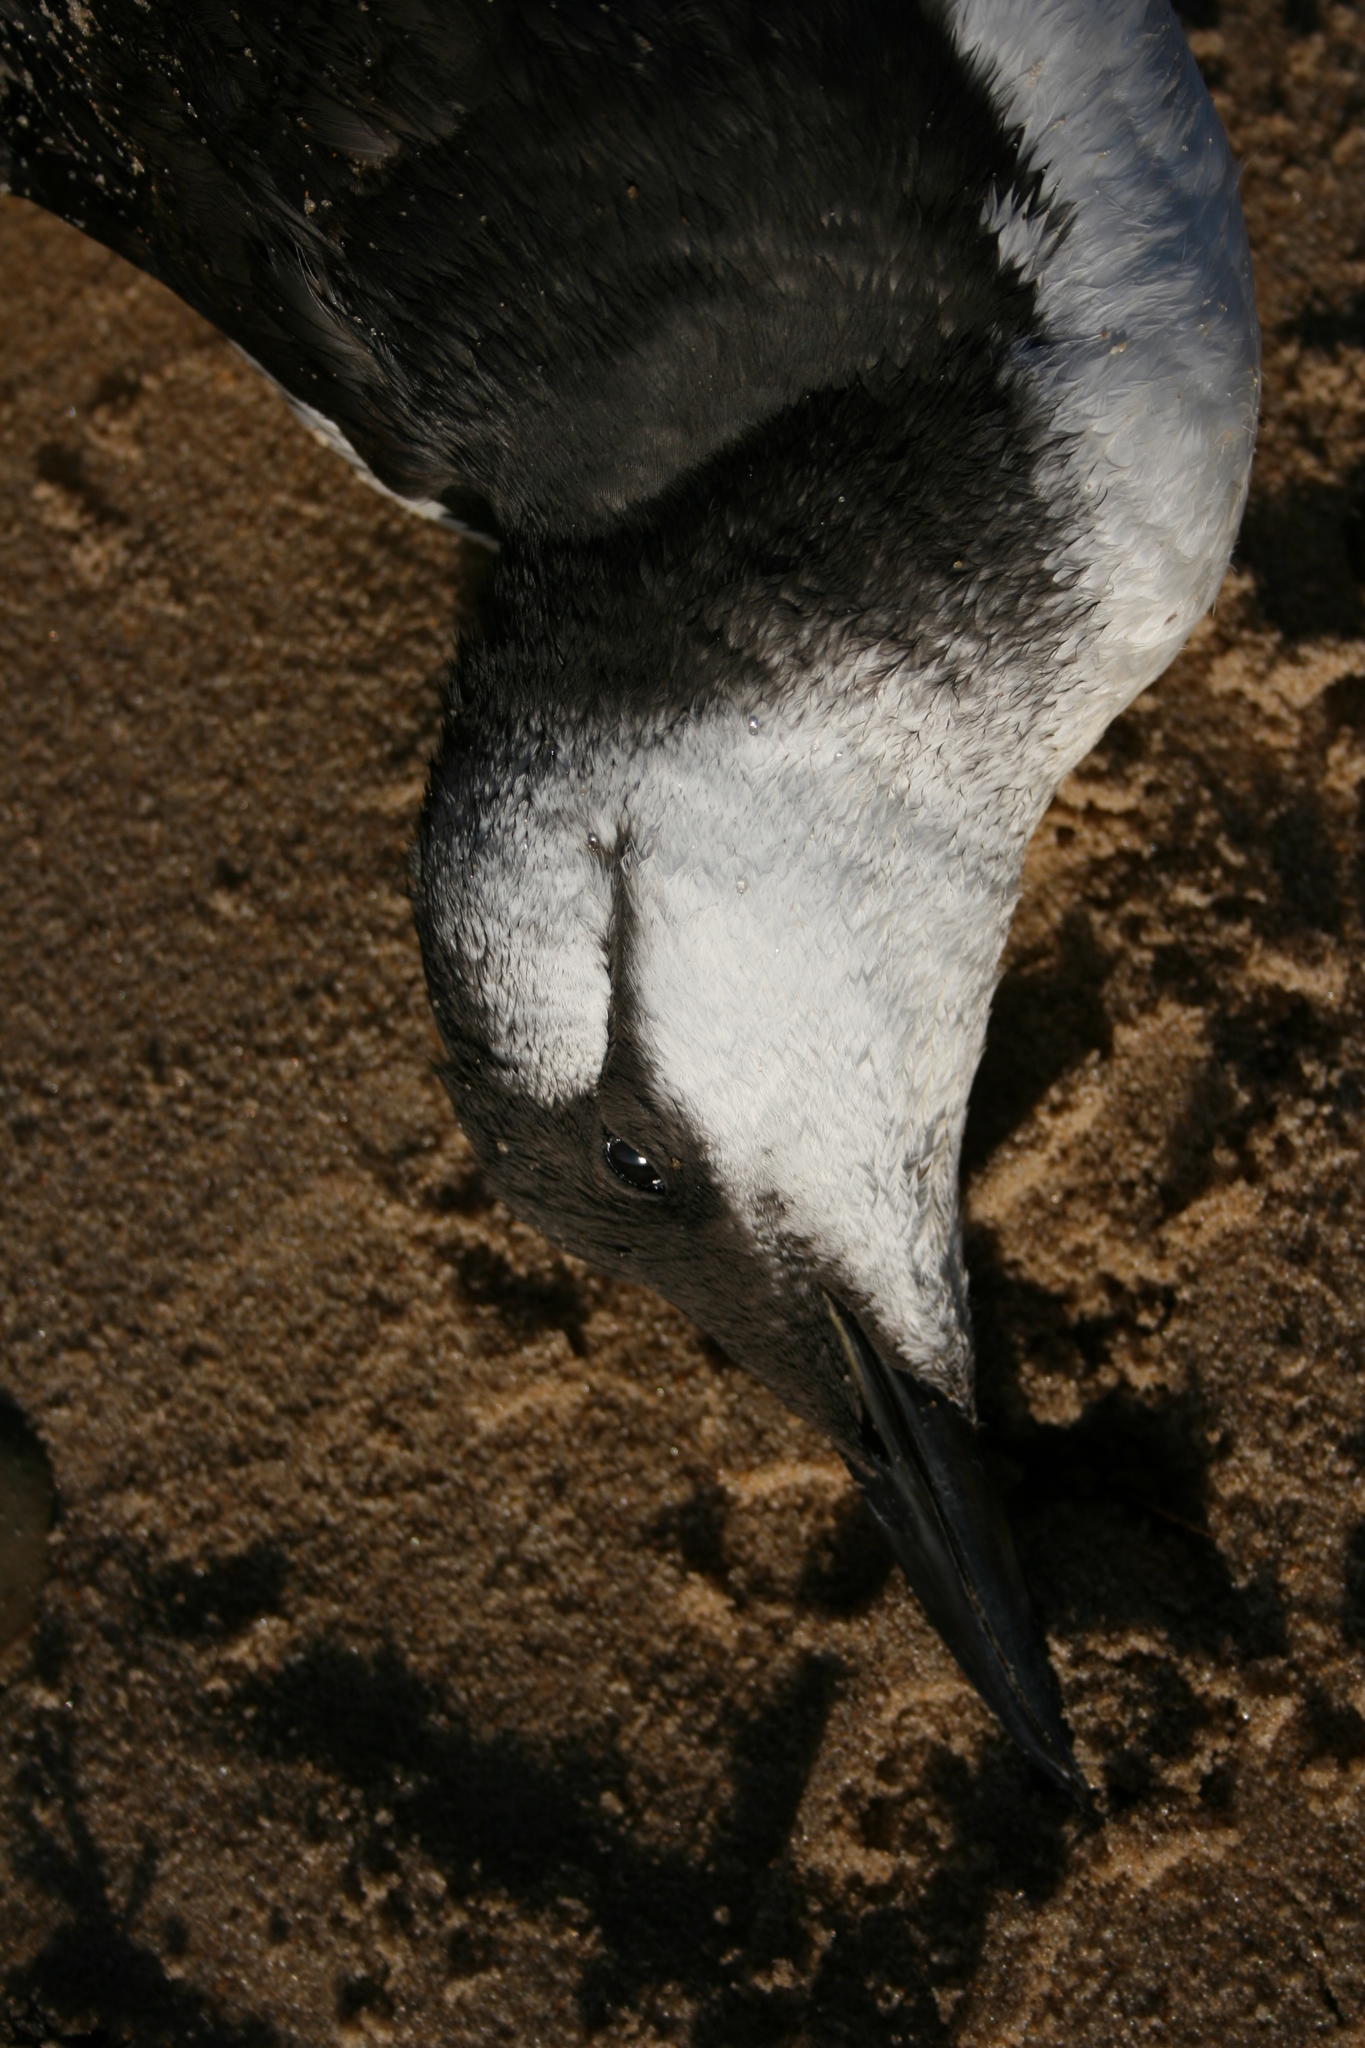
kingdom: Animalia
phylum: Chordata
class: Aves
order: Charadriiformes
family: Alcidae
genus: Uria
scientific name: Uria aalge
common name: Common murre
